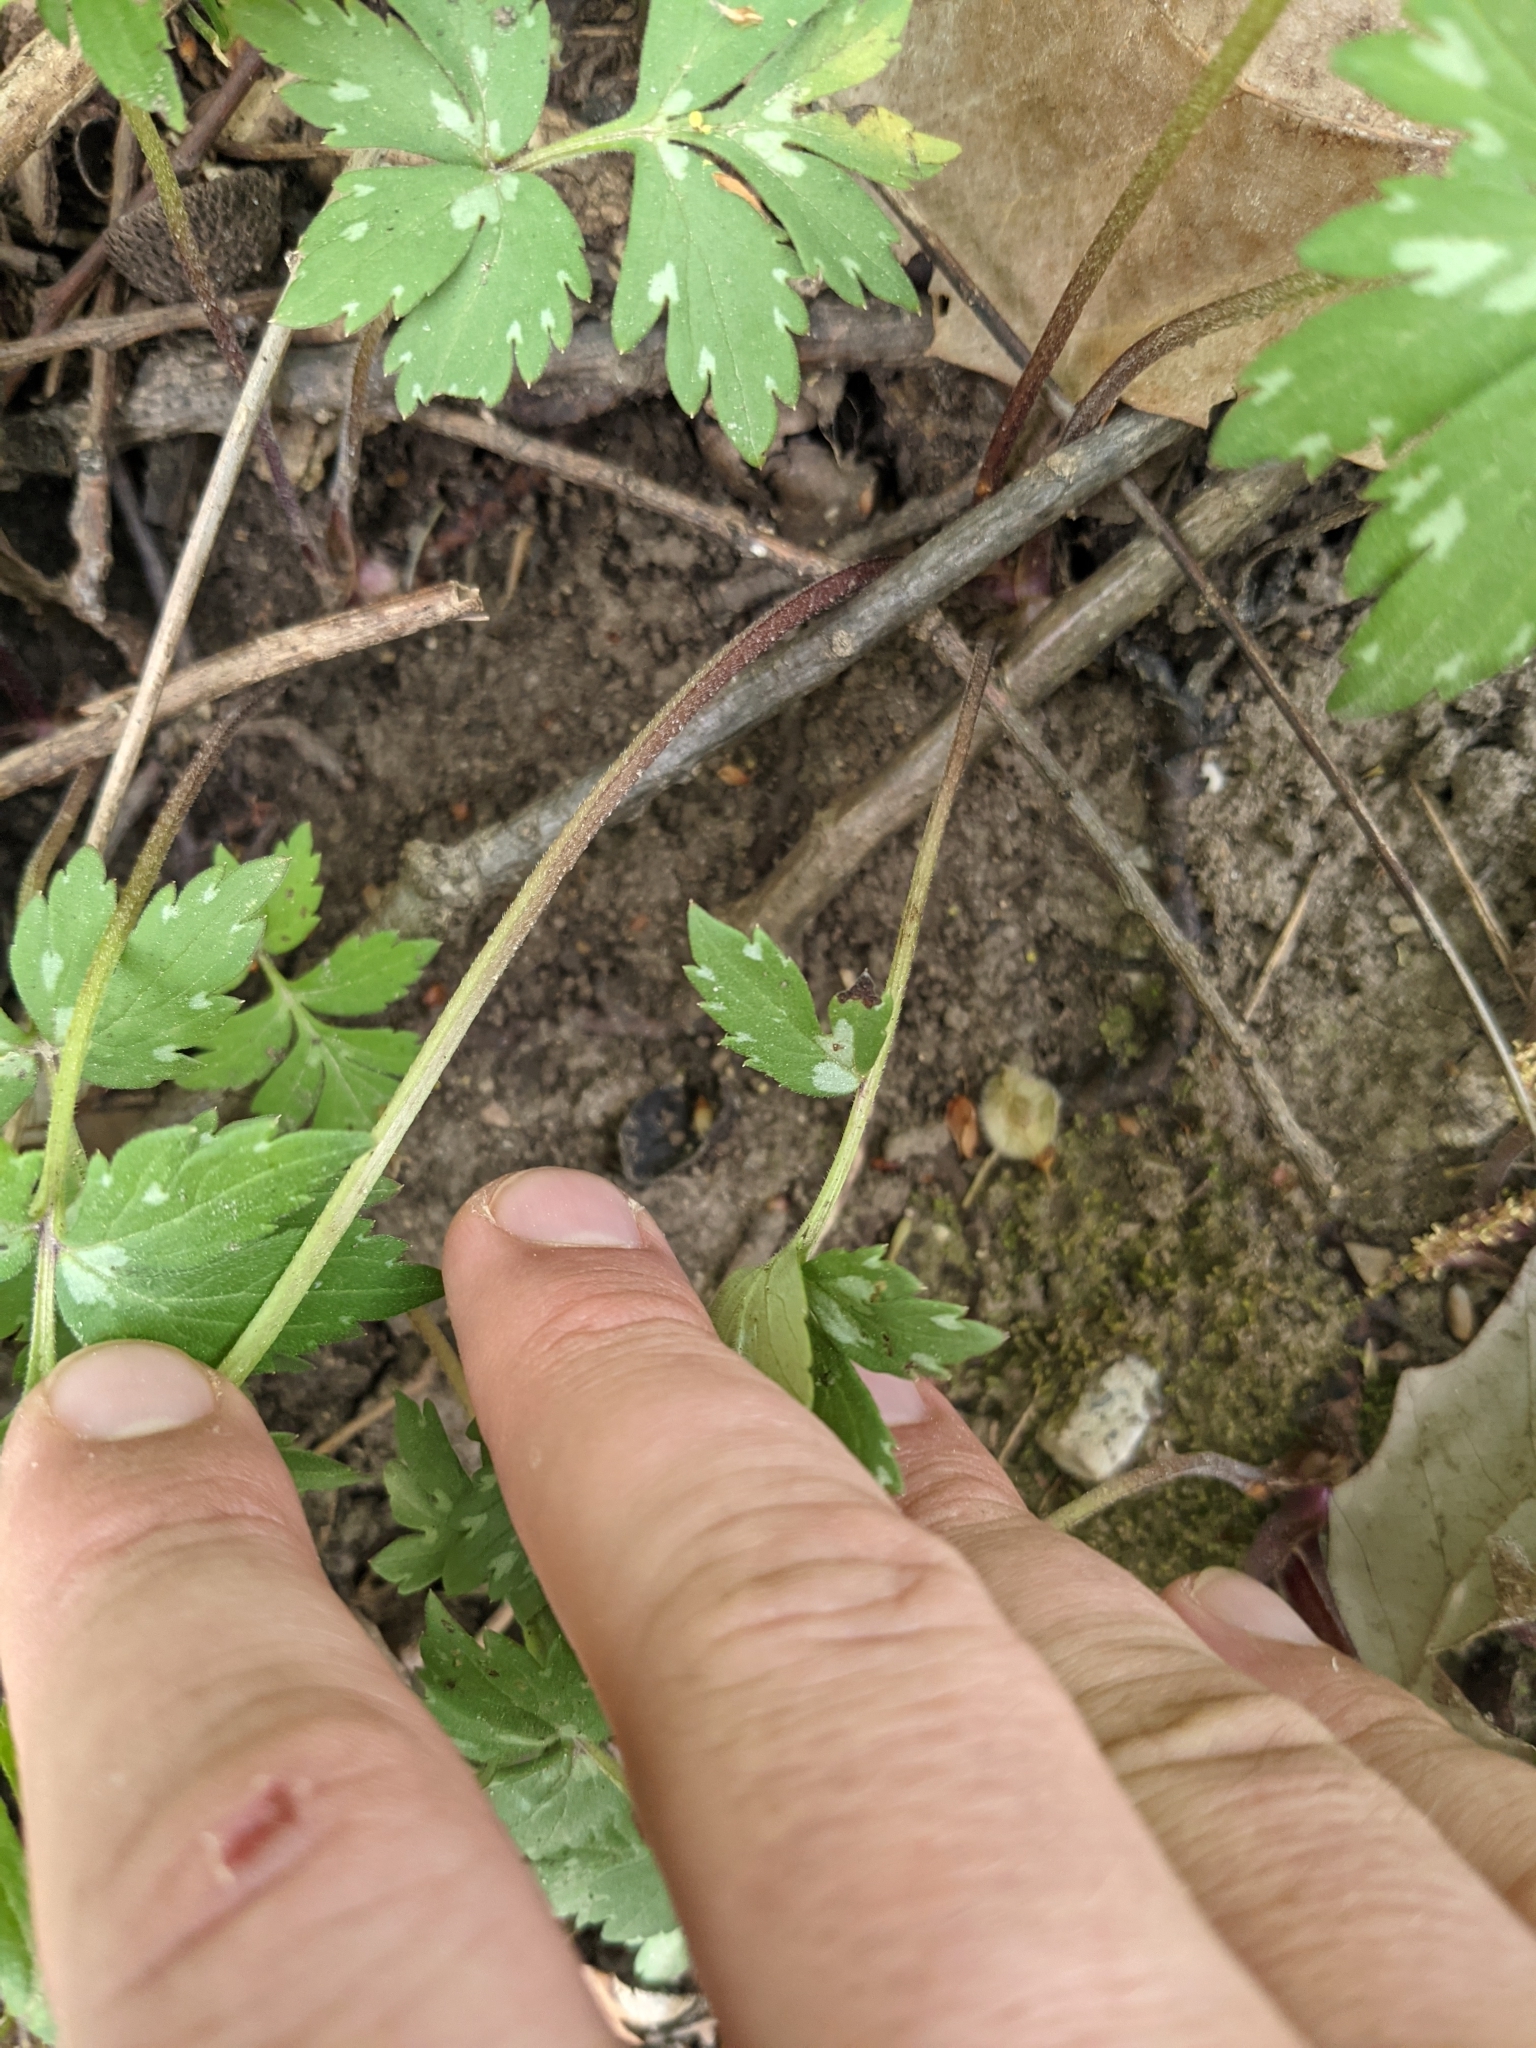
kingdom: Plantae
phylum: Tracheophyta
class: Magnoliopsida
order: Boraginales
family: Hydrophyllaceae
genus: Hydrophyllum
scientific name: Hydrophyllum virginianum
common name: Virginia waterleaf
